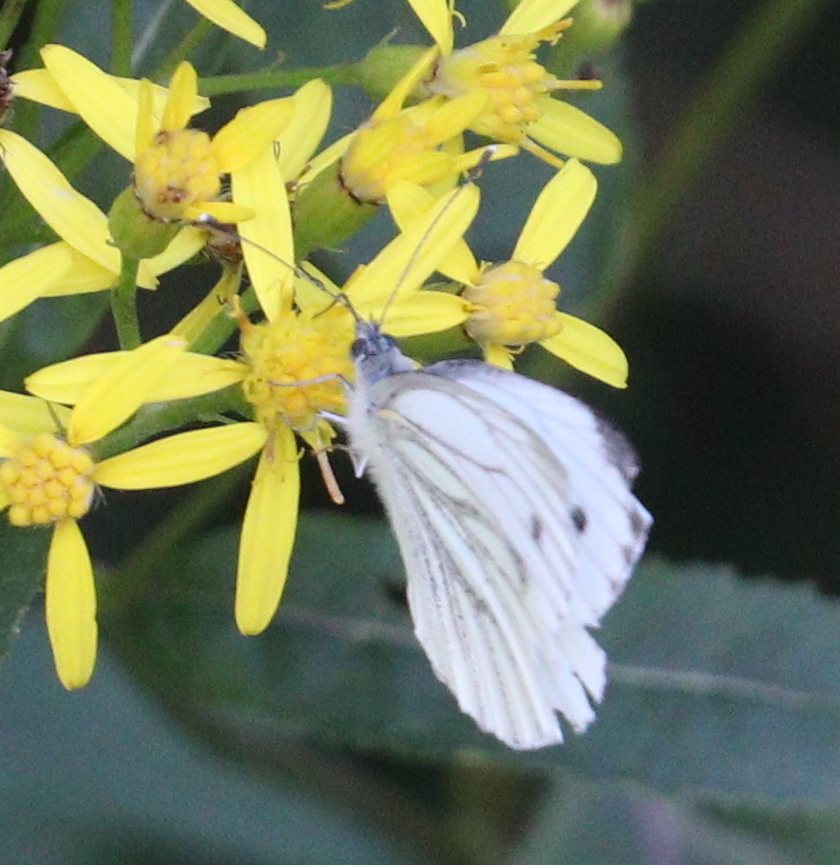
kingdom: Animalia
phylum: Arthropoda
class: Insecta
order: Lepidoptera
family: Pieridae
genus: Pieris
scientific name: Pieris napi
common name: Green-veined white
